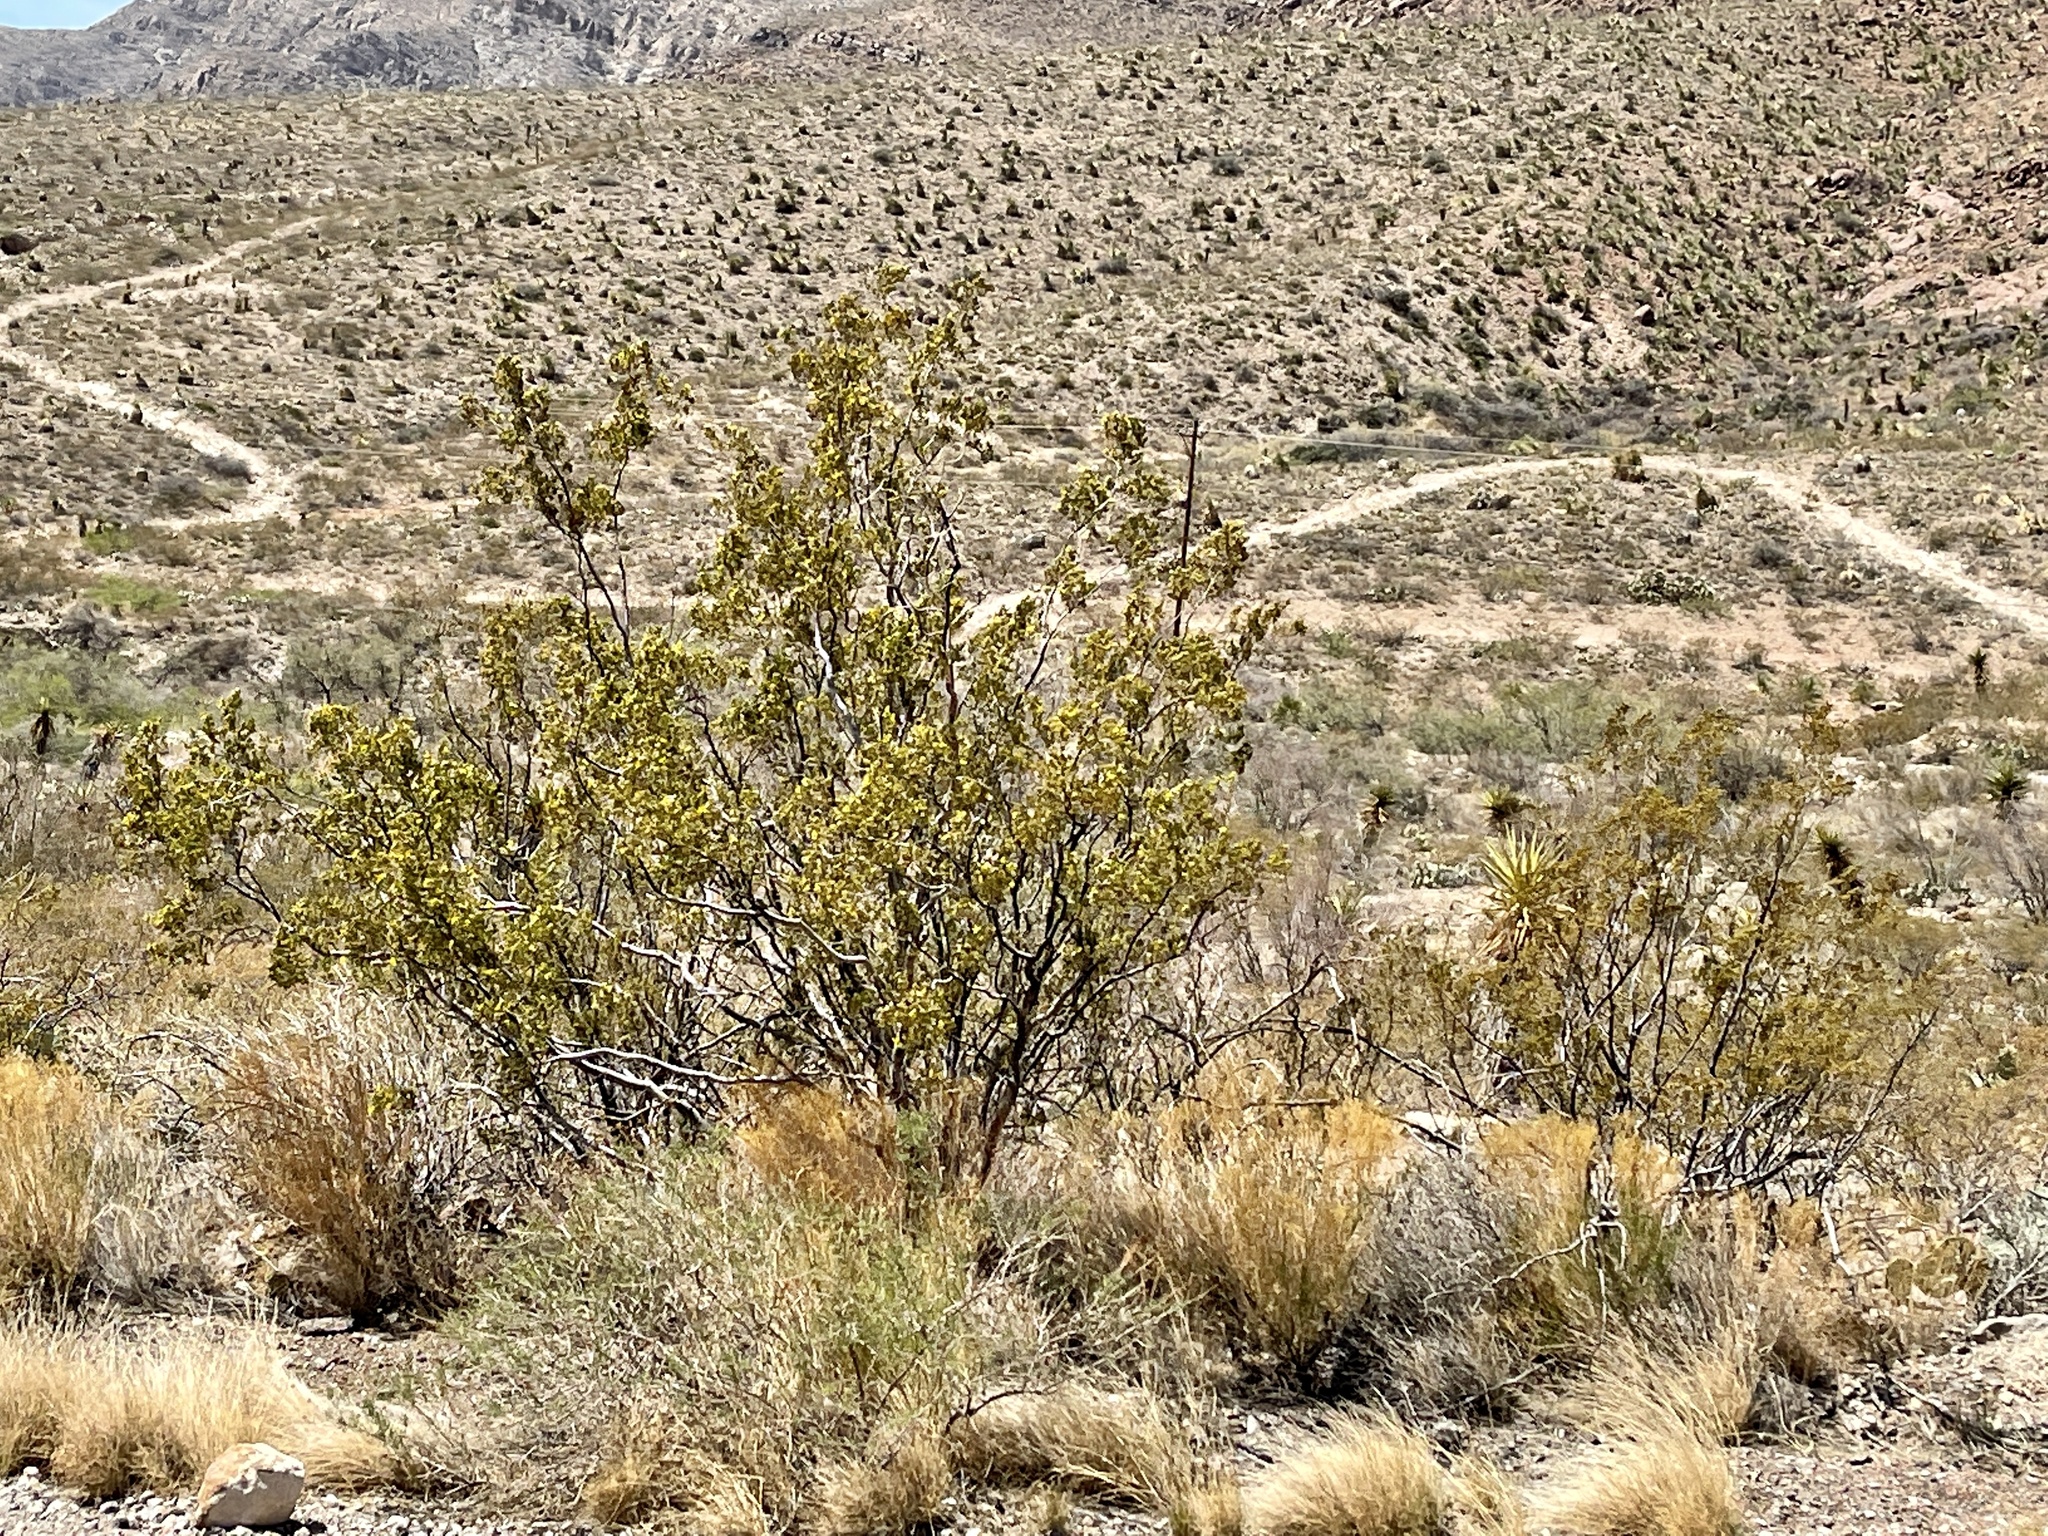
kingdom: Plantae
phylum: Tracheophyta
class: Magnoliopsida
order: Zygophyllales
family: Zygophyllaceae
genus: Larrea
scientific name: Larrea tridentata
